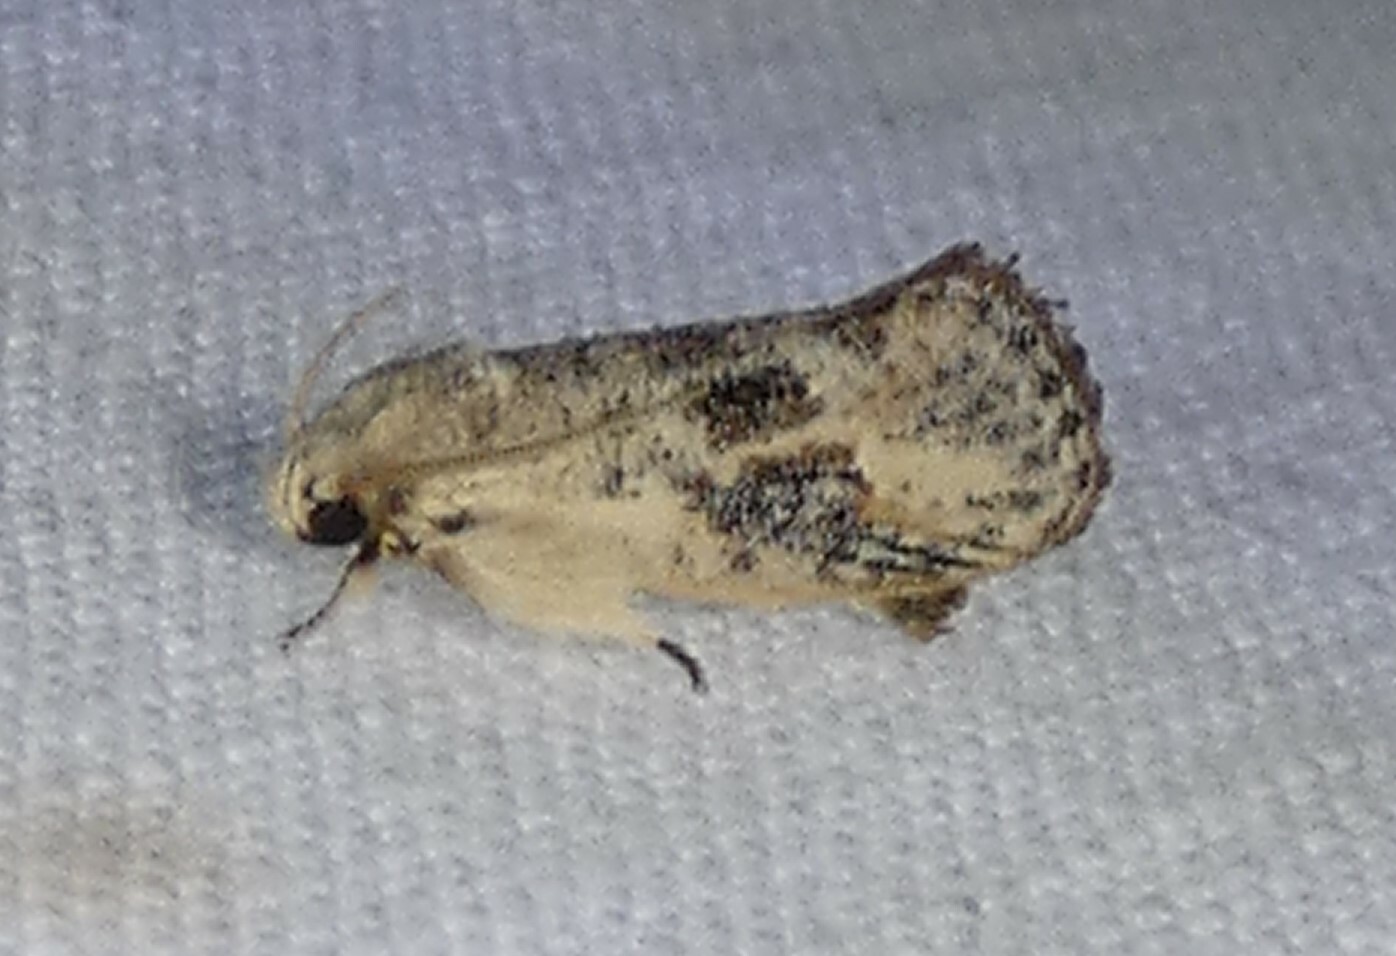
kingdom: Animalia
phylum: Arthropoda
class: Insecta
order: Lepidoptera
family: Tineidae
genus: Acrolophus
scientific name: Acrolophus mycetophagus
